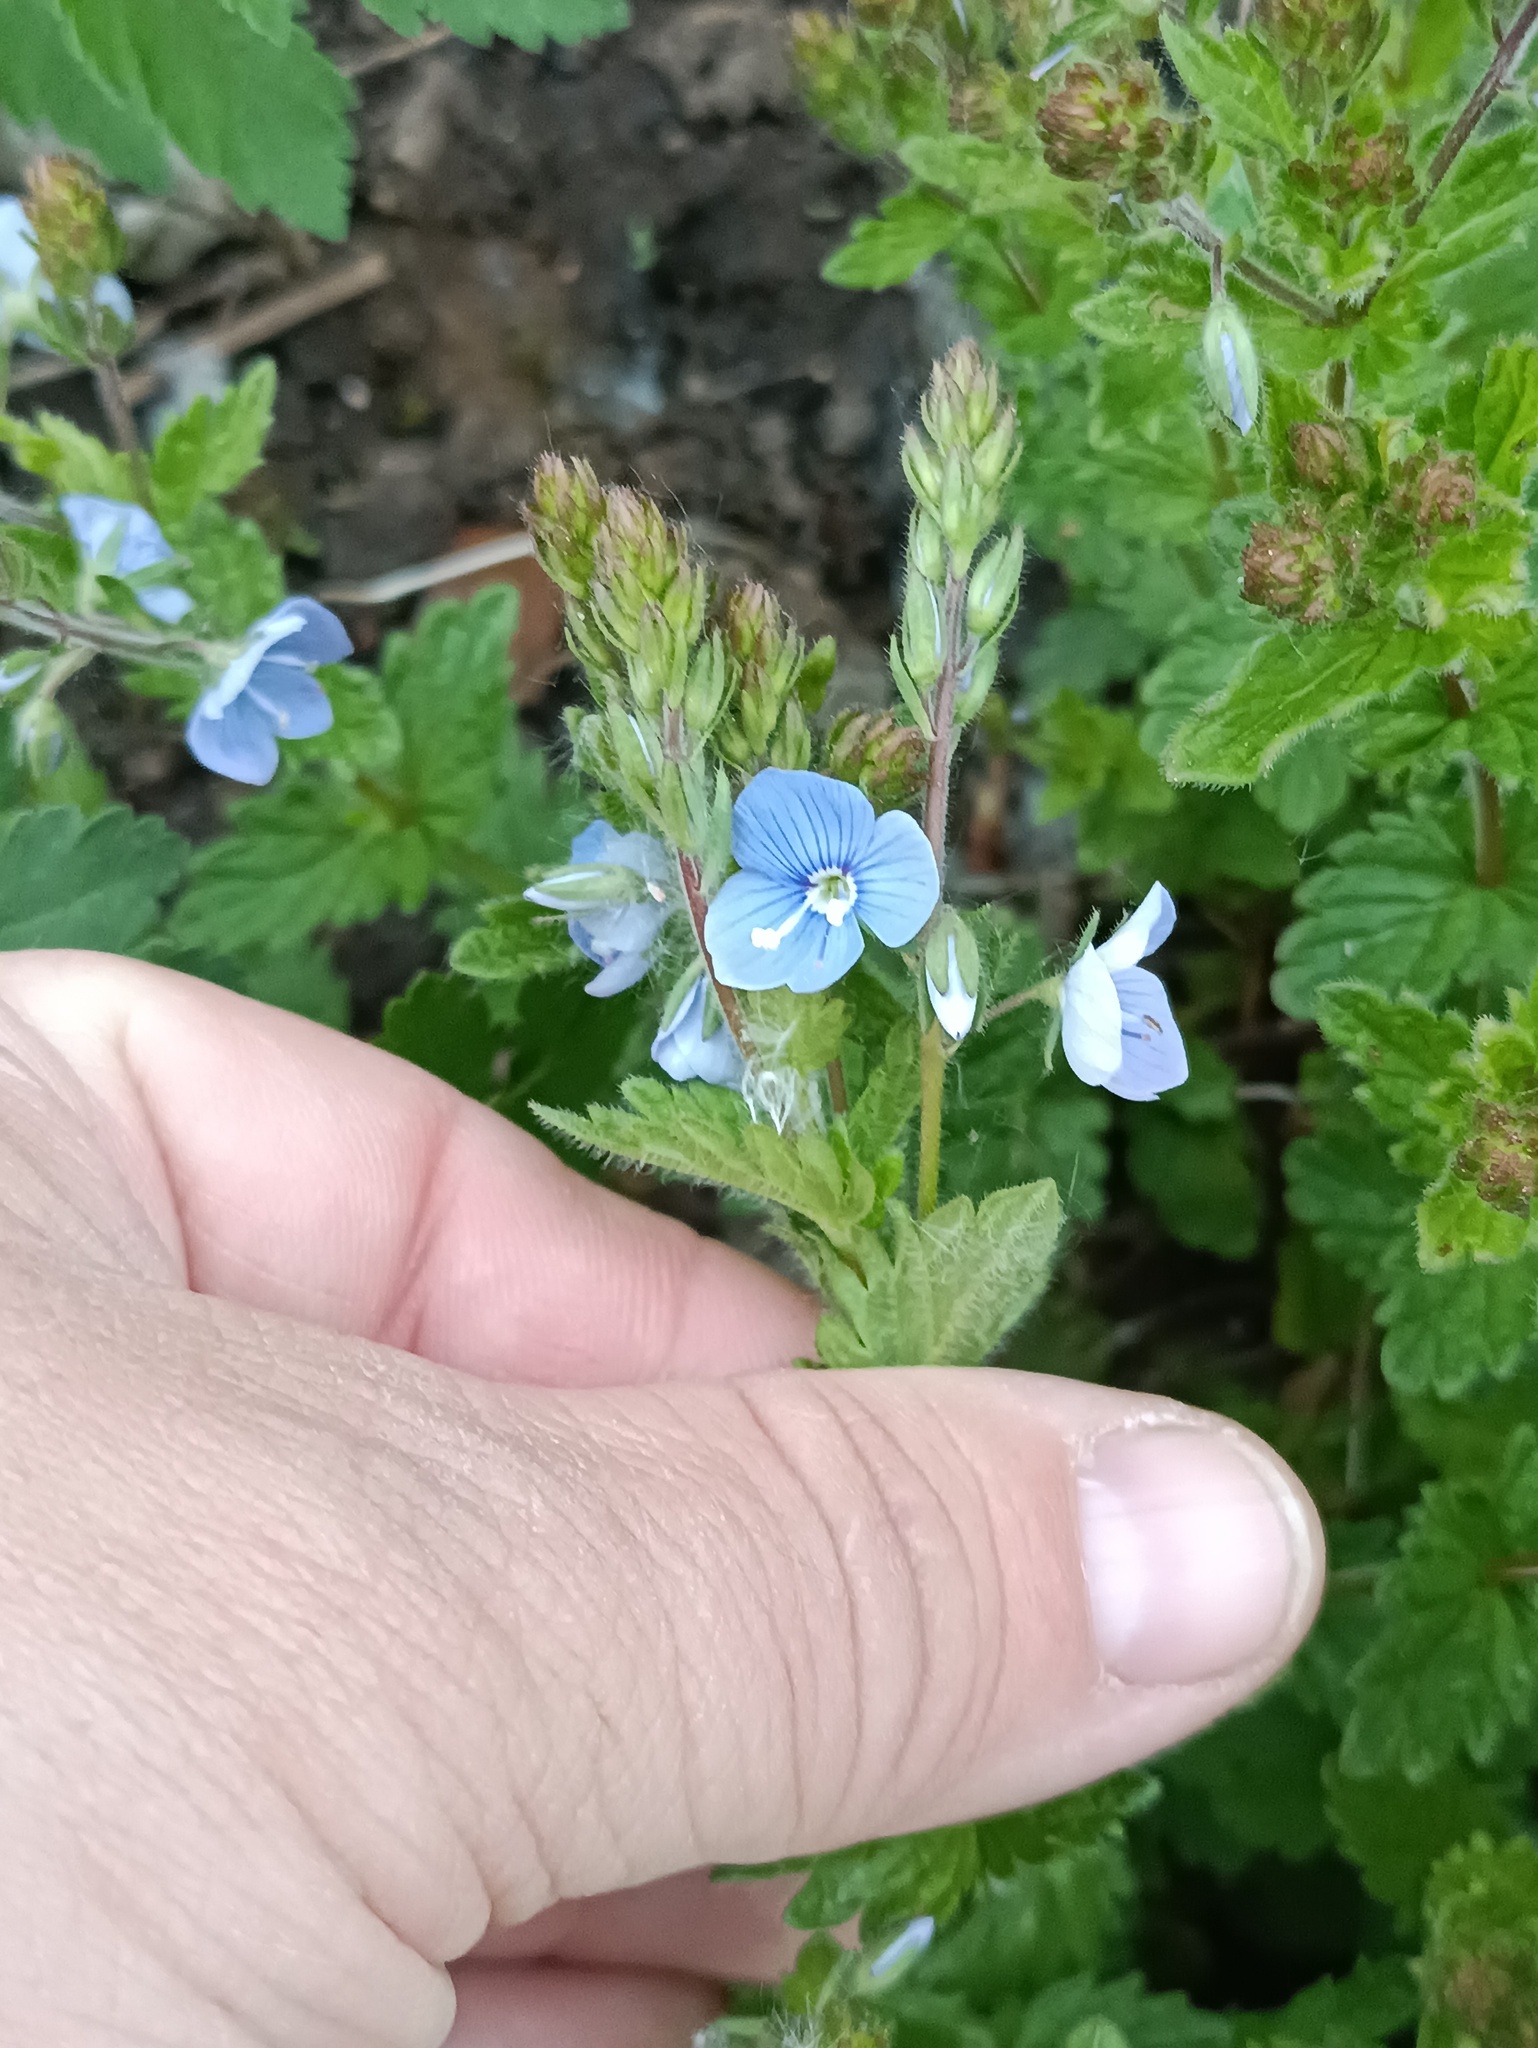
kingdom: Plantae
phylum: Tracheophyta
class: Magnoliopsida
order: Lamiales
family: Plantaginaceae
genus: Veronica
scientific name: Veronica chamaedrys
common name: Germander speedwell
